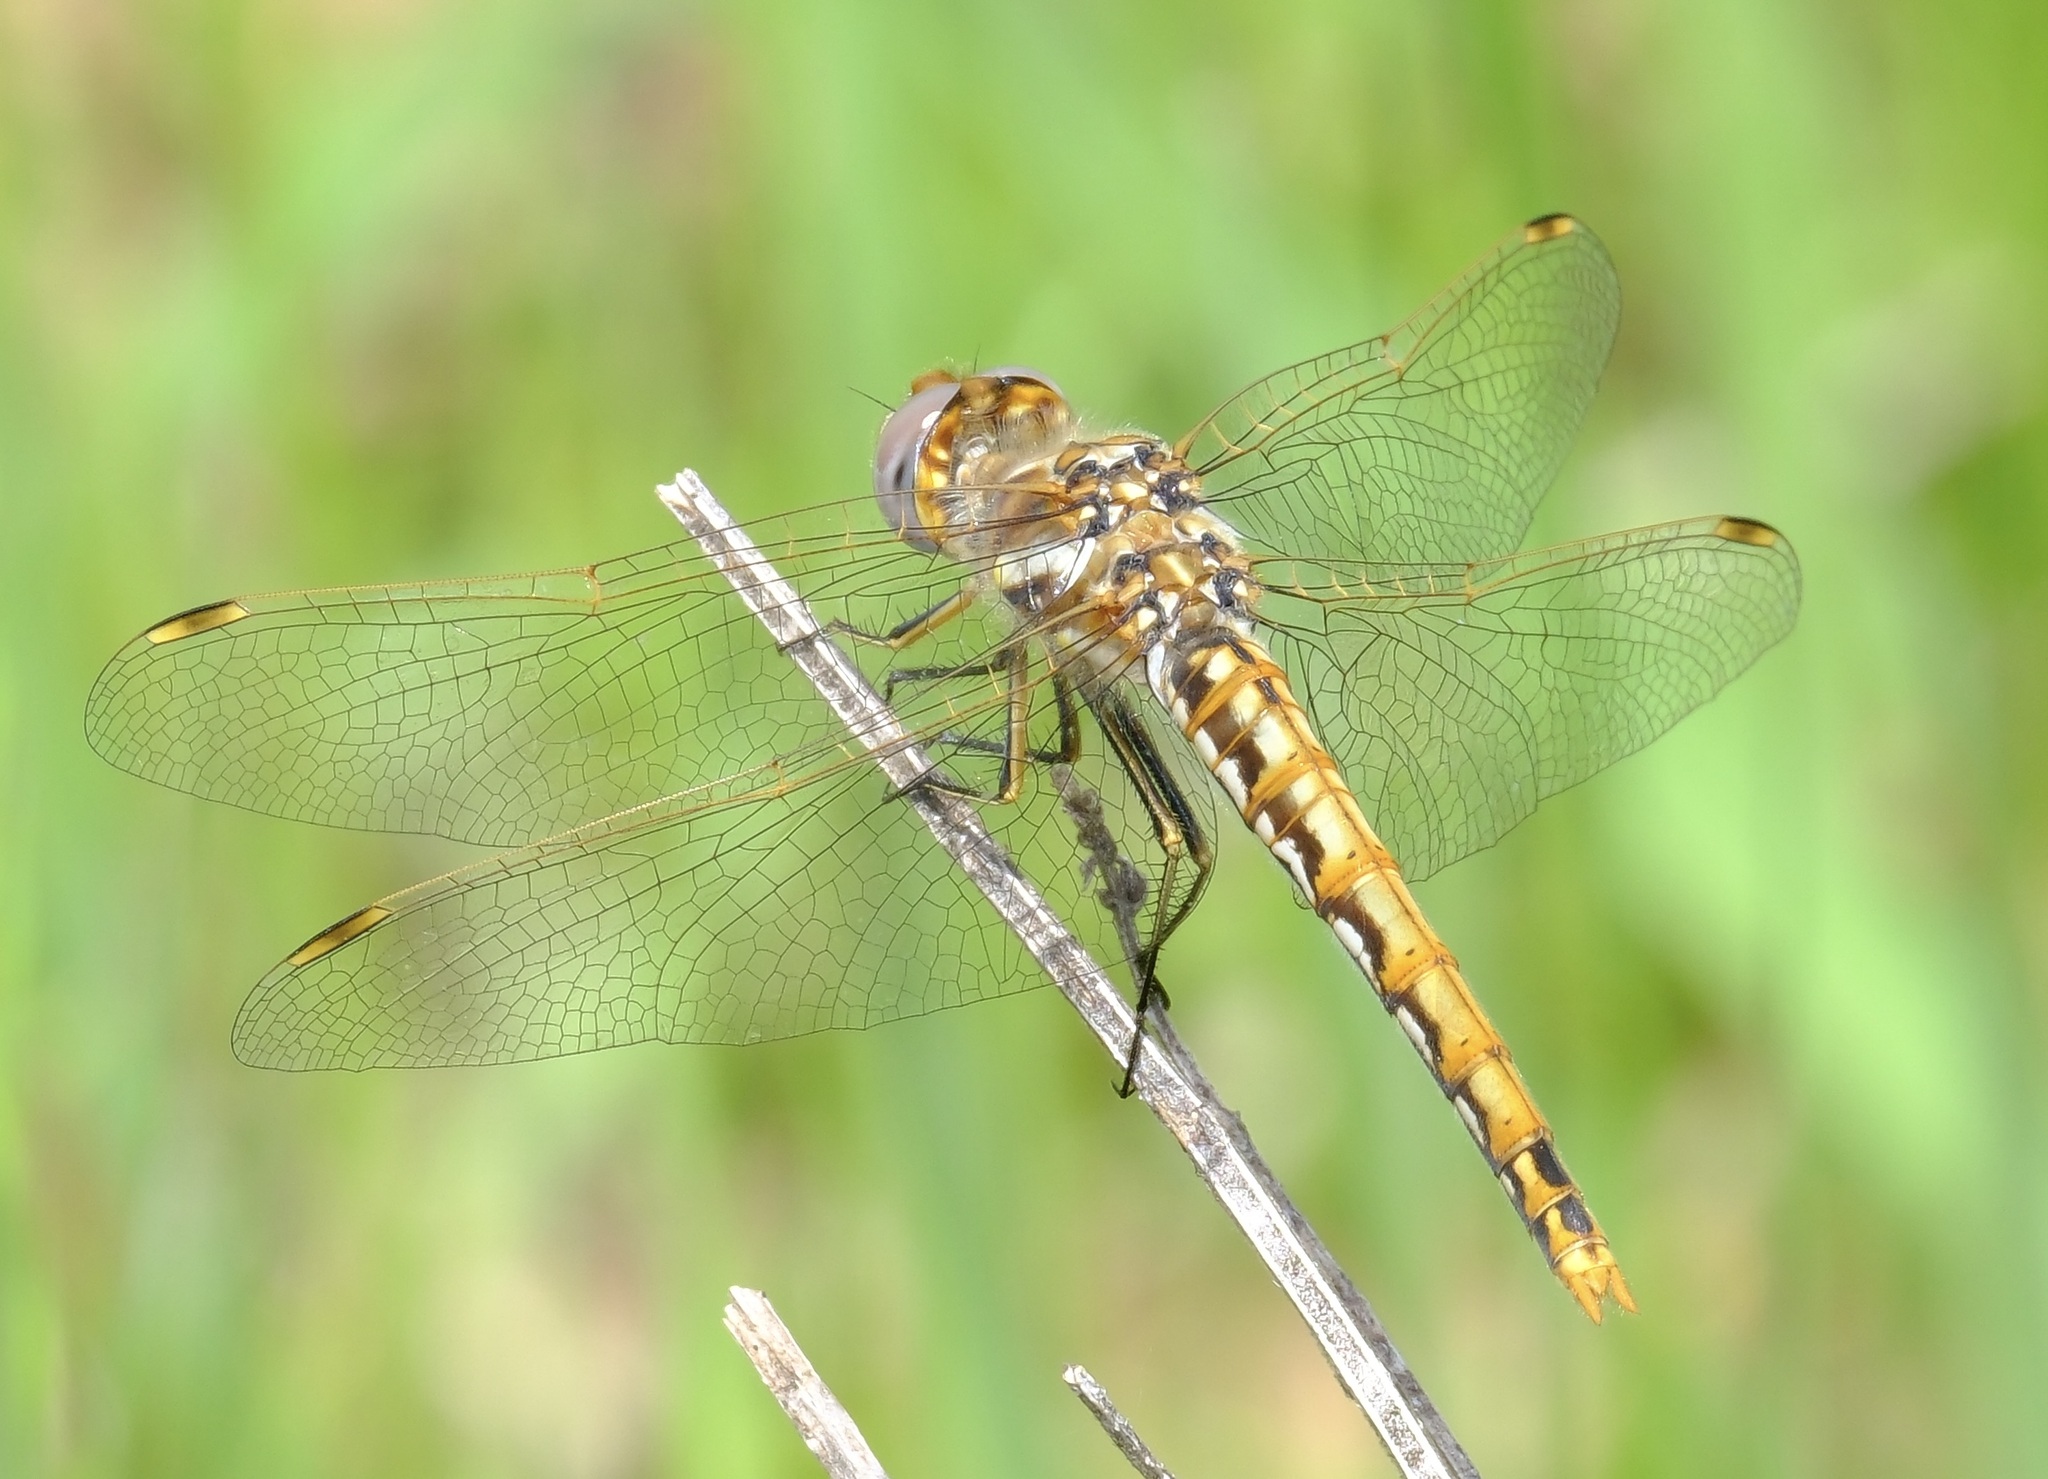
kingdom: Animalia
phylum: Arthropoda
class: Insecta
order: Odonata
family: Libellulidae
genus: Sympetrum
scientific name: Sympetrum corruptum
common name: Variegated meadowhawk
